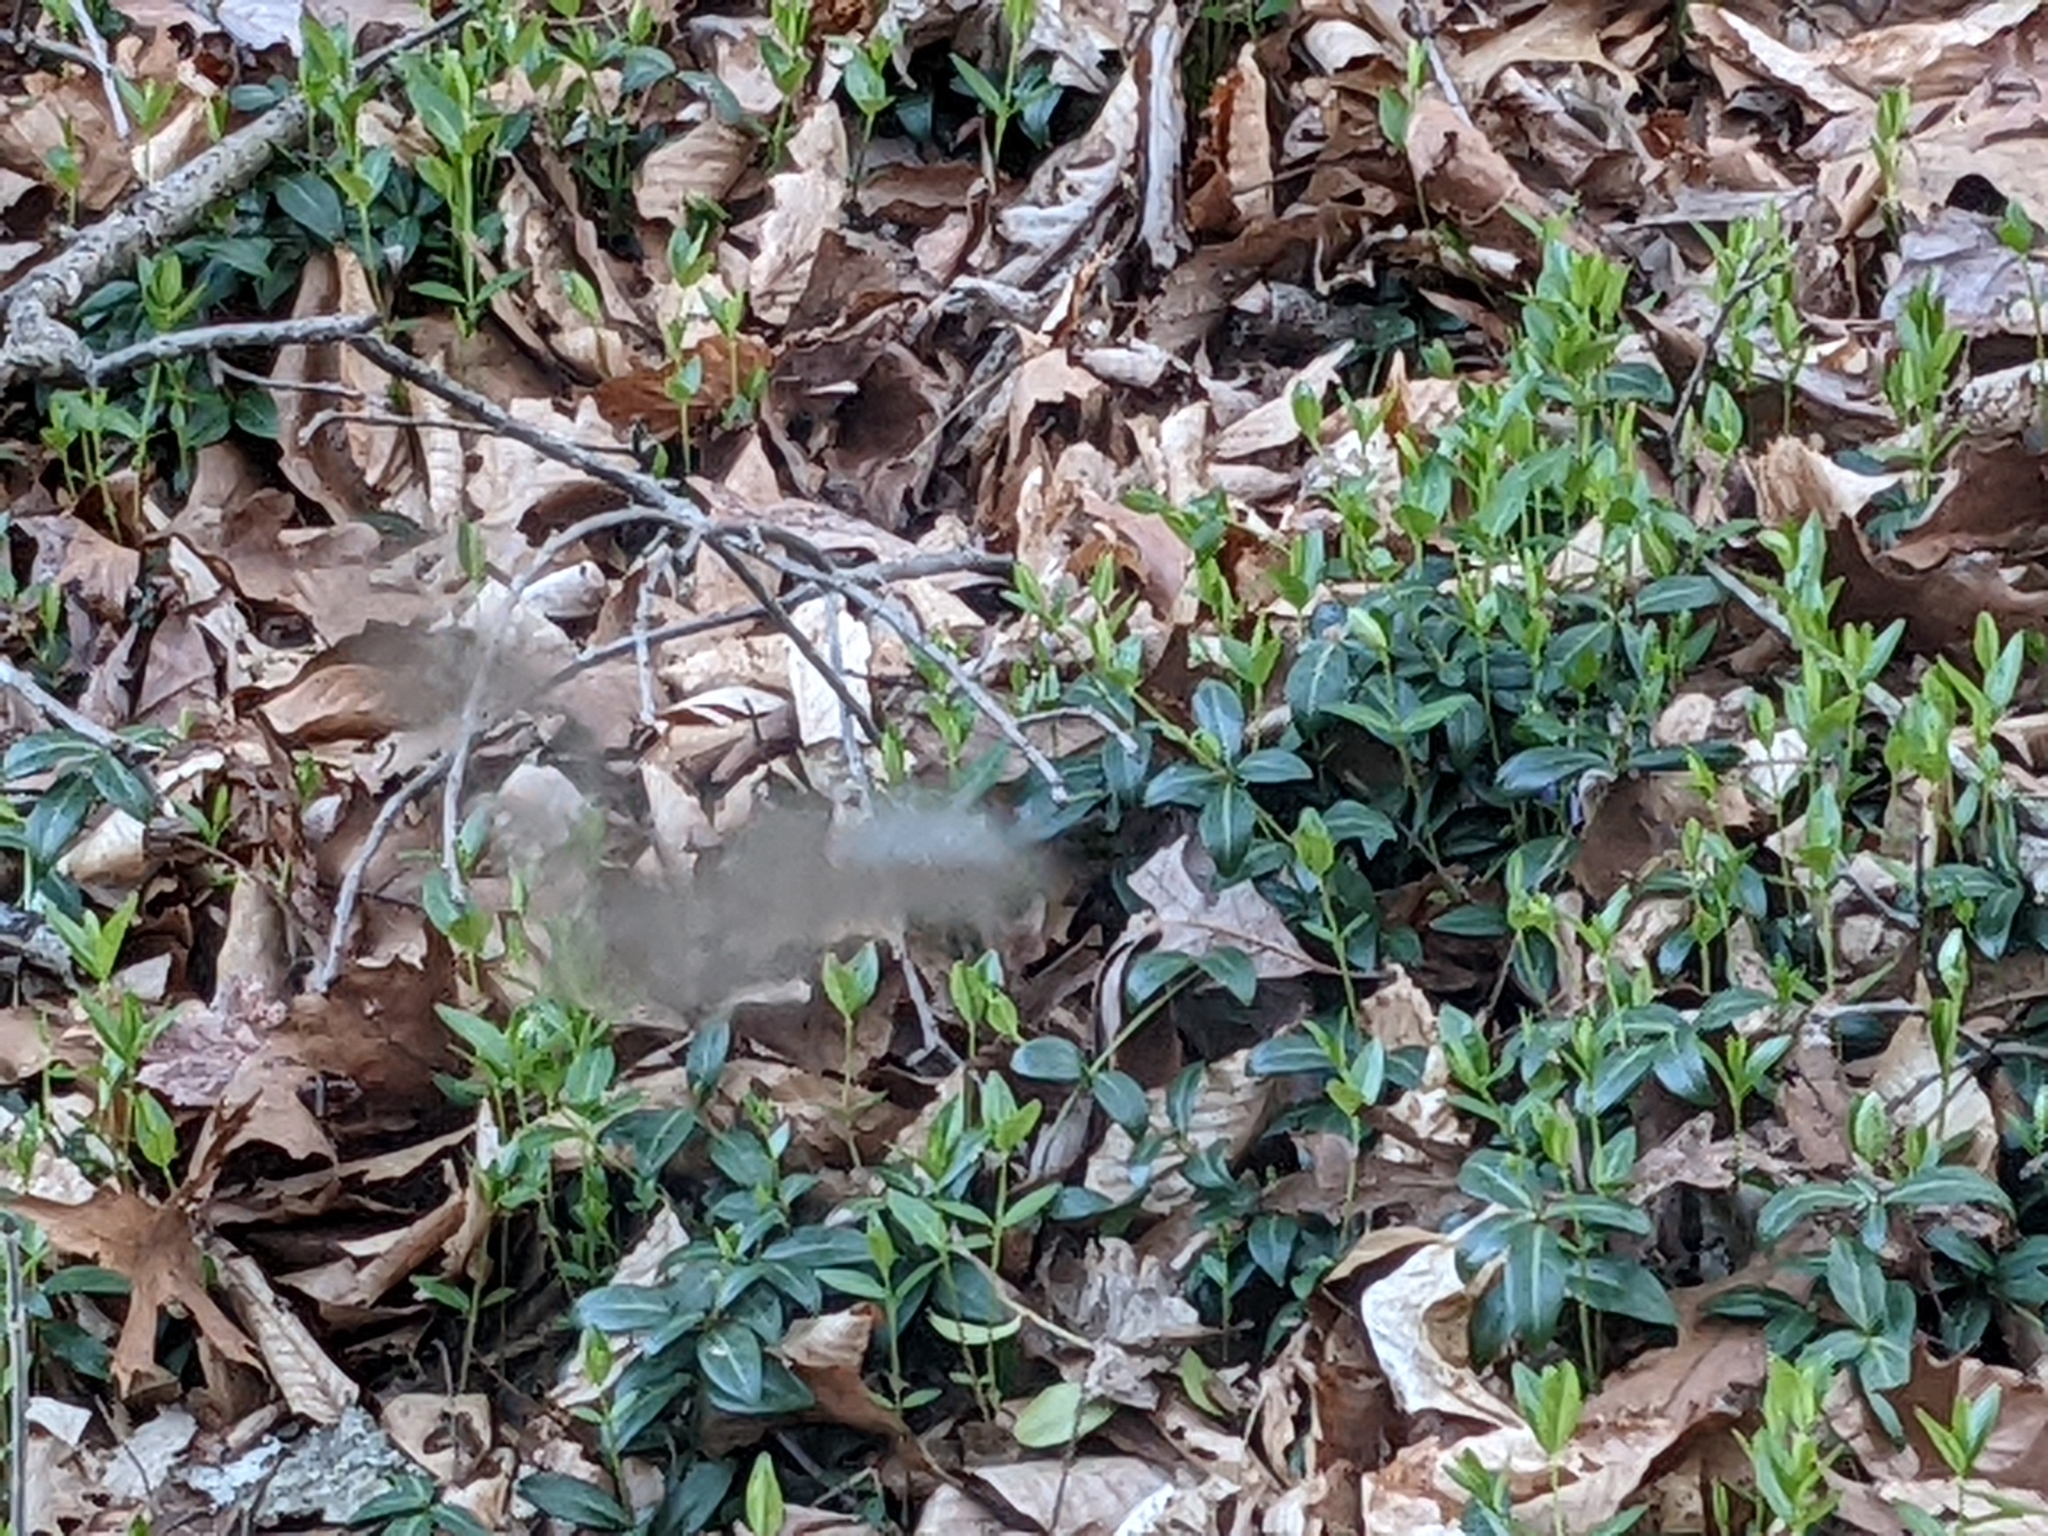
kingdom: Plantae
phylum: Tracheophyta
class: Magnoliopsida
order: Gentianales
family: Apocynaceae
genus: Vinca
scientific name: Vinca minor
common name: Lesser periwinkle
